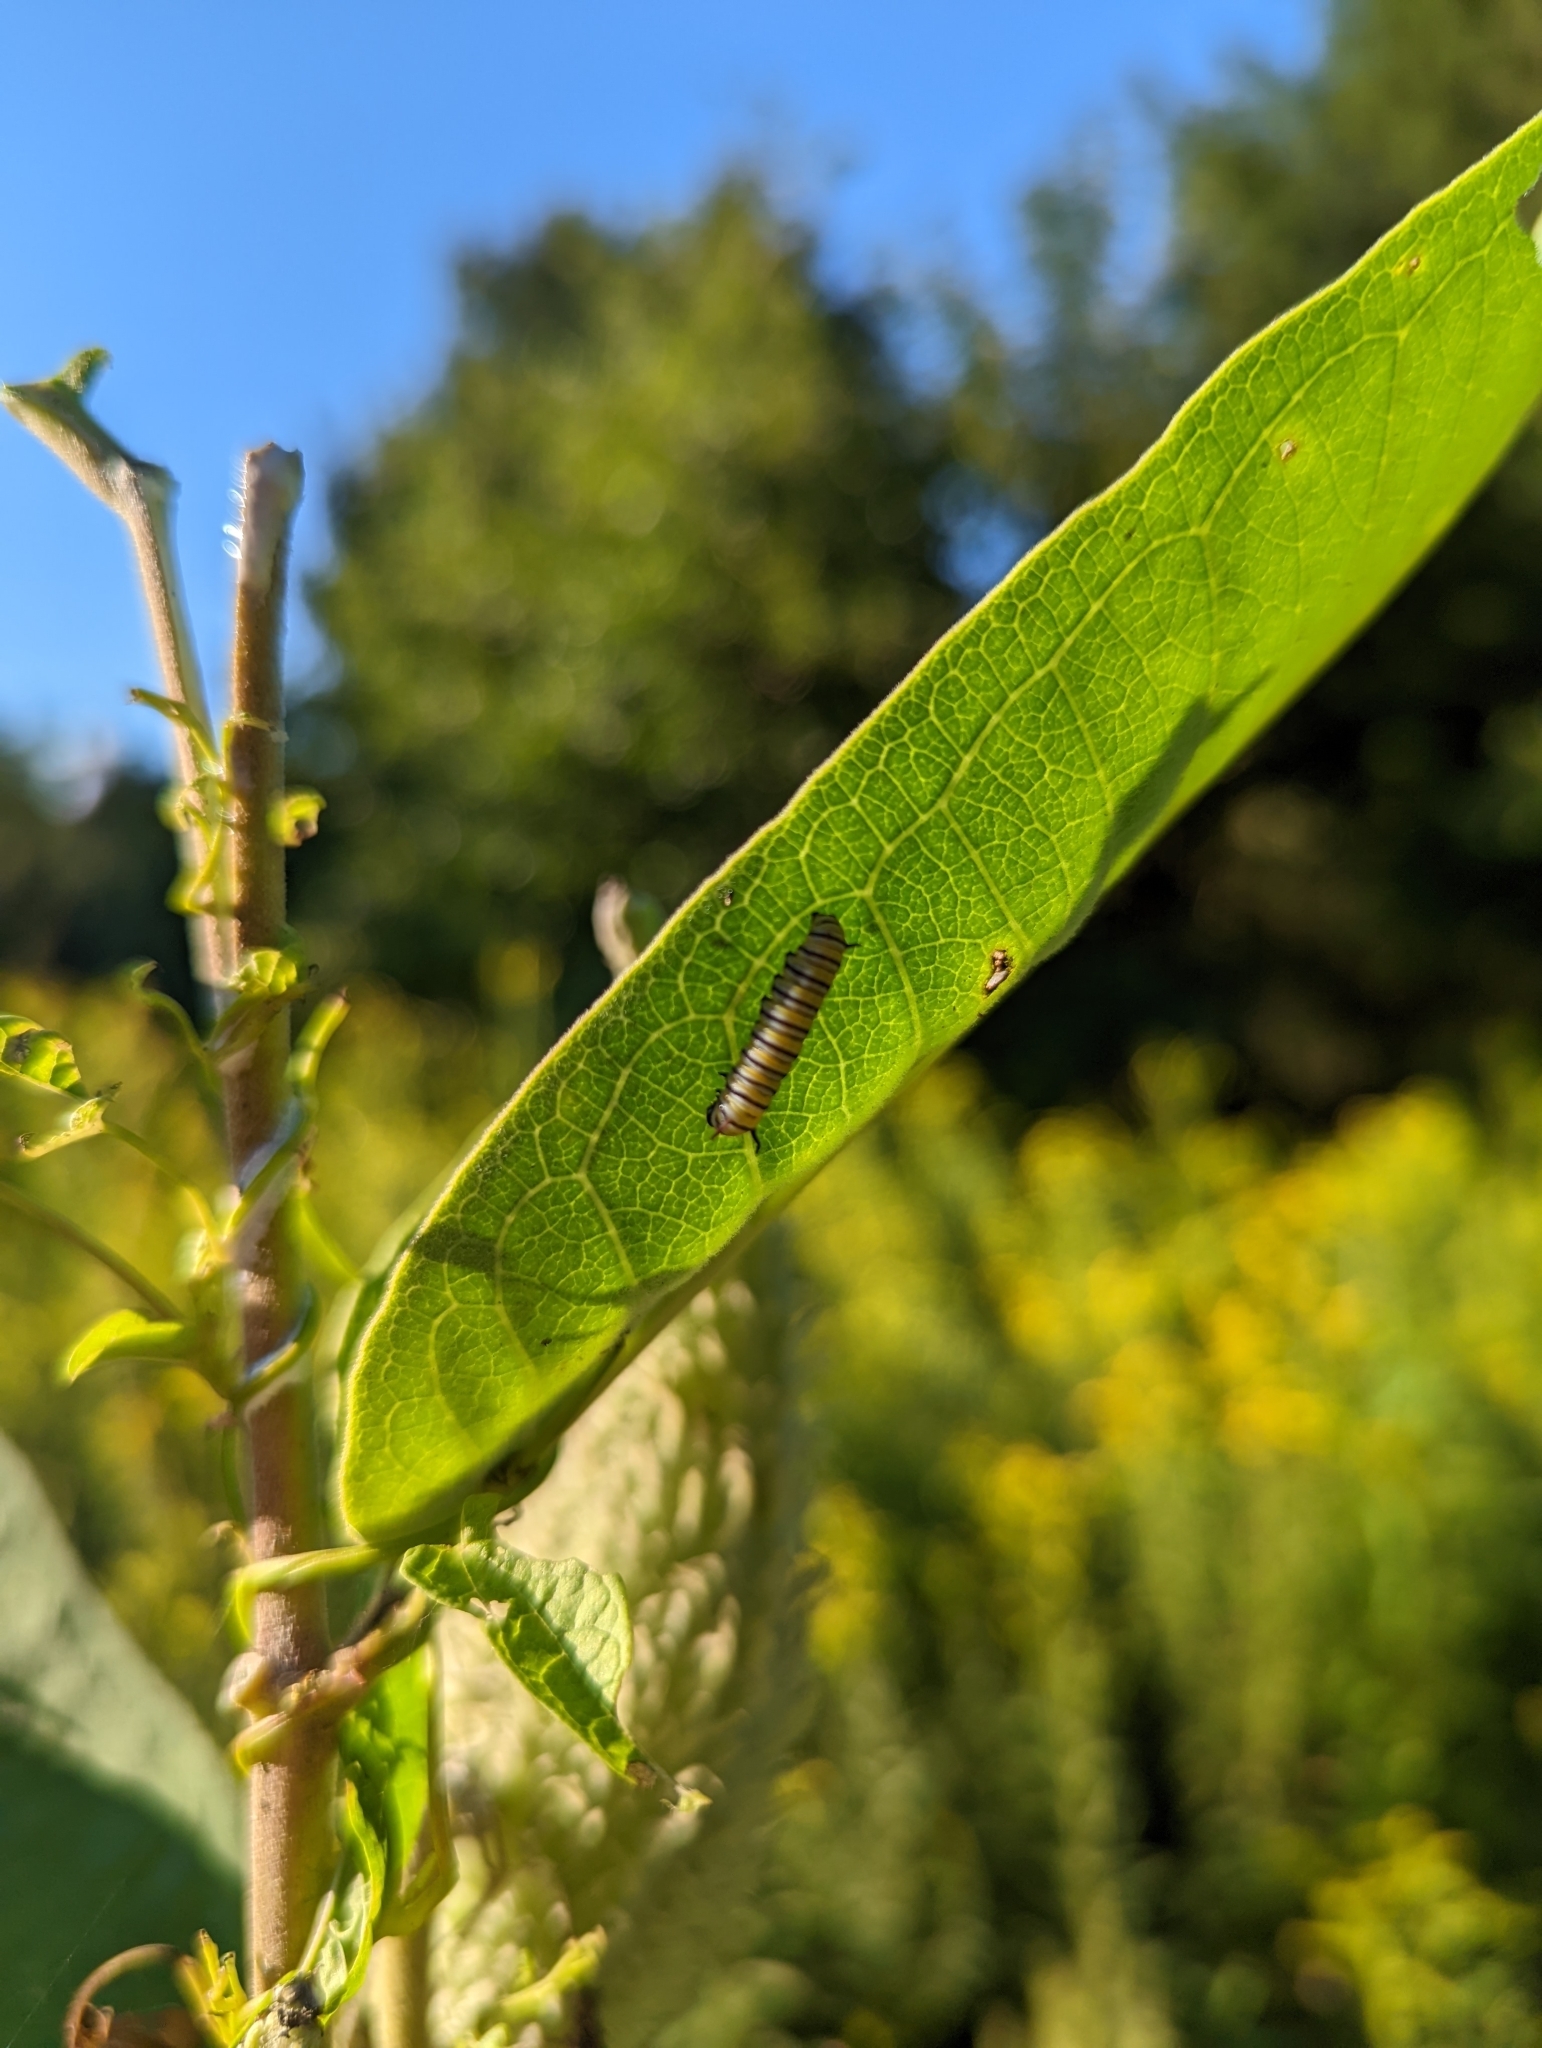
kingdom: Animalia
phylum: Arthropoda
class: Insecta
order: Lepidoptera
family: Nymphalidae
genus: Danaus
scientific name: Danaus plexippus
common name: Monarch
